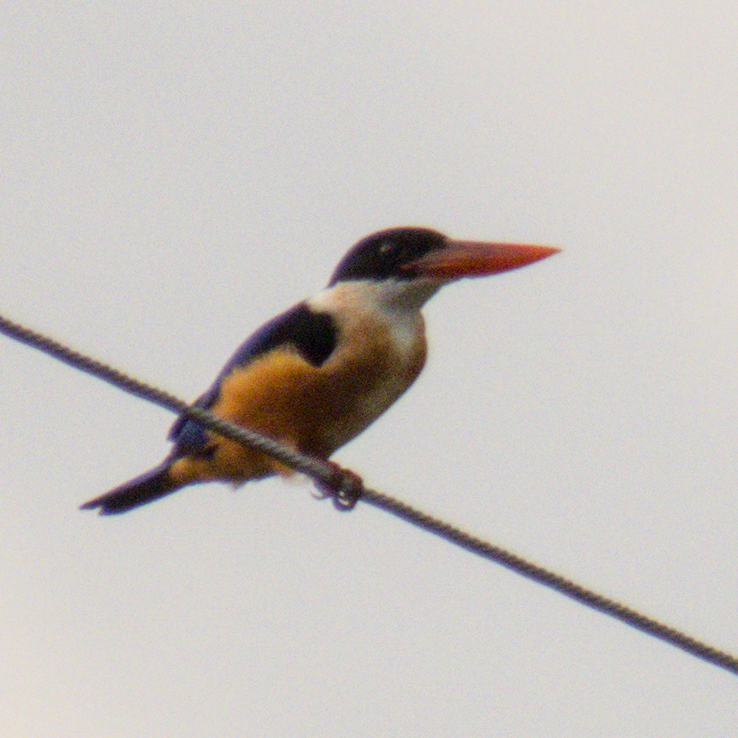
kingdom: Animalia
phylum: Chordata
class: Aves
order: Coraciiformes
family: Alcedinidae
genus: Halcyon
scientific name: Halcyon pileata
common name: Black-capped kingfisher
